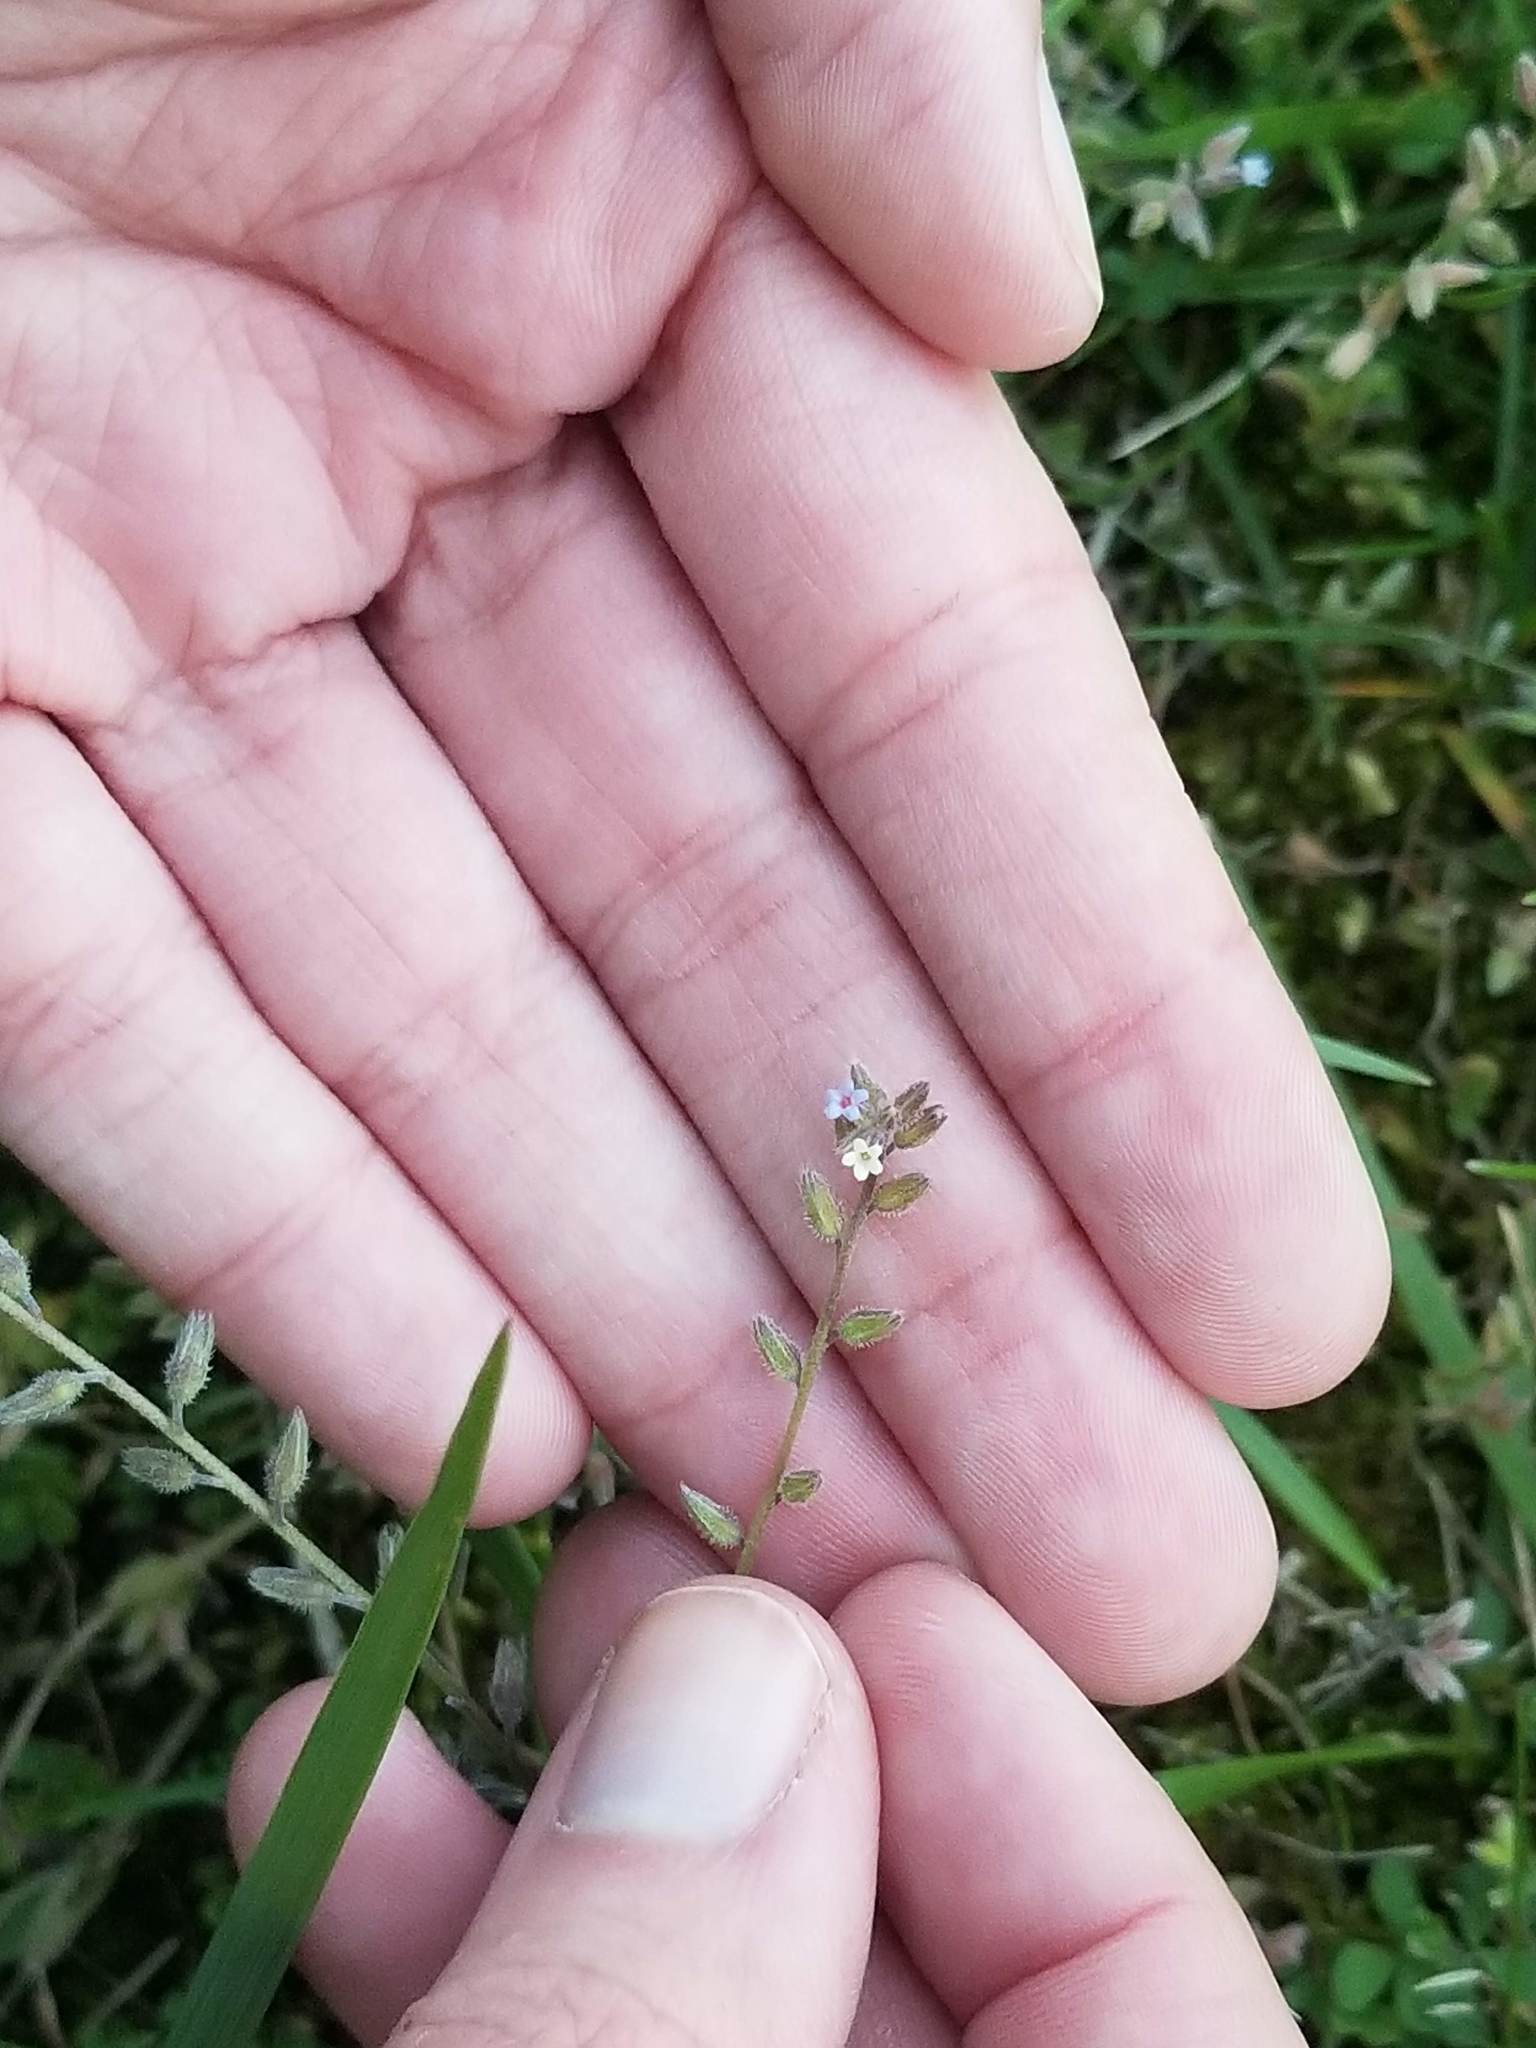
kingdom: Plantae
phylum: Tracheophyta
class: Magnoliopsida
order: Boraginales
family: Boraginaceae
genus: Myosotis
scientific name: Myosotis discolor
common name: Changing forget-me-not
